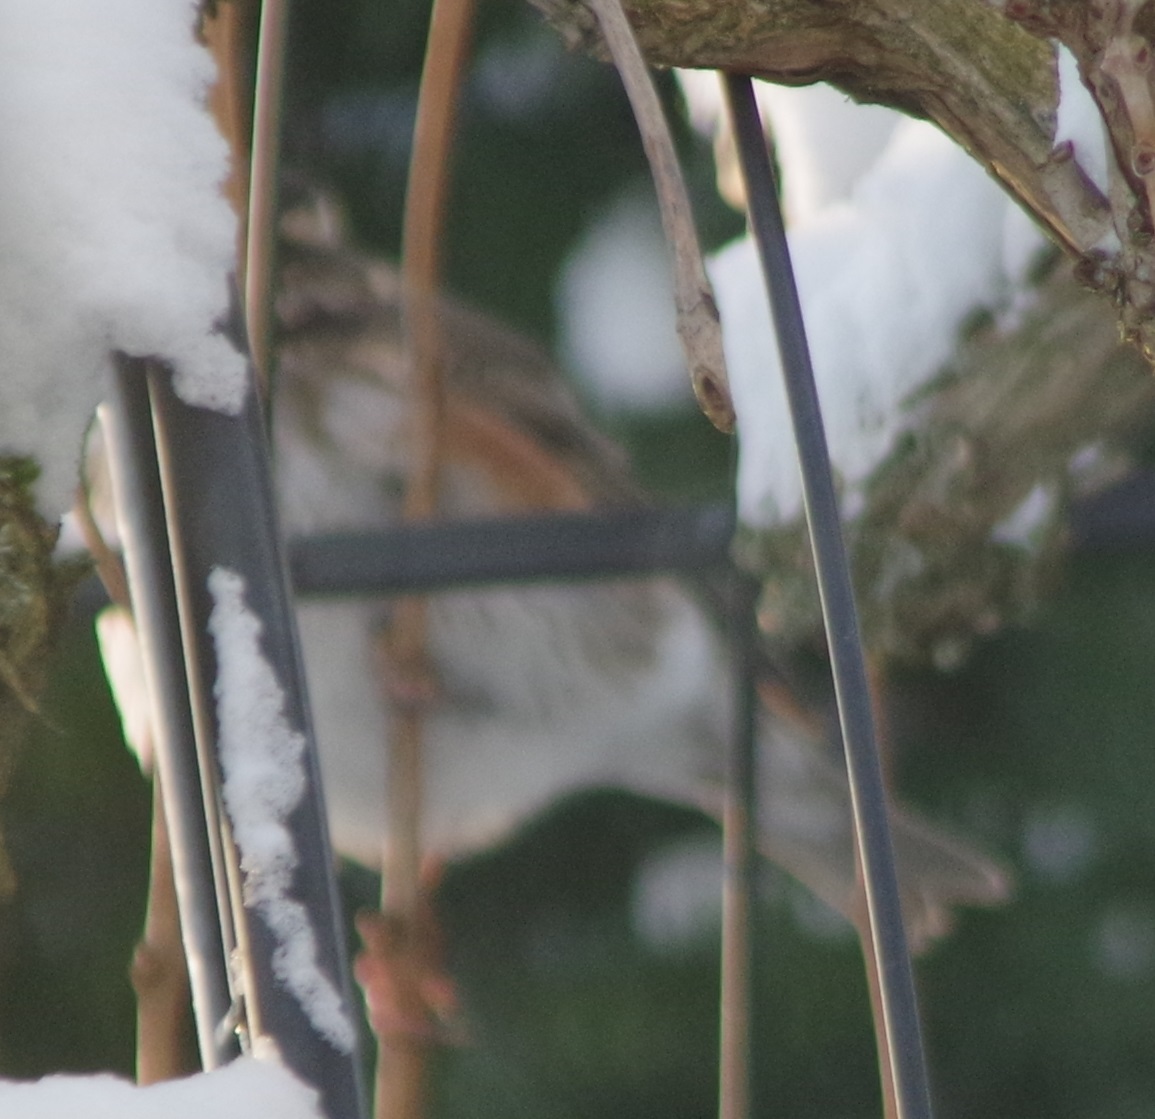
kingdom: Animalia
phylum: Chordata
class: Aves
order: Passeriformes
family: Turdidae
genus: Turdus
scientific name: Turdus iliacus
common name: Redwing
